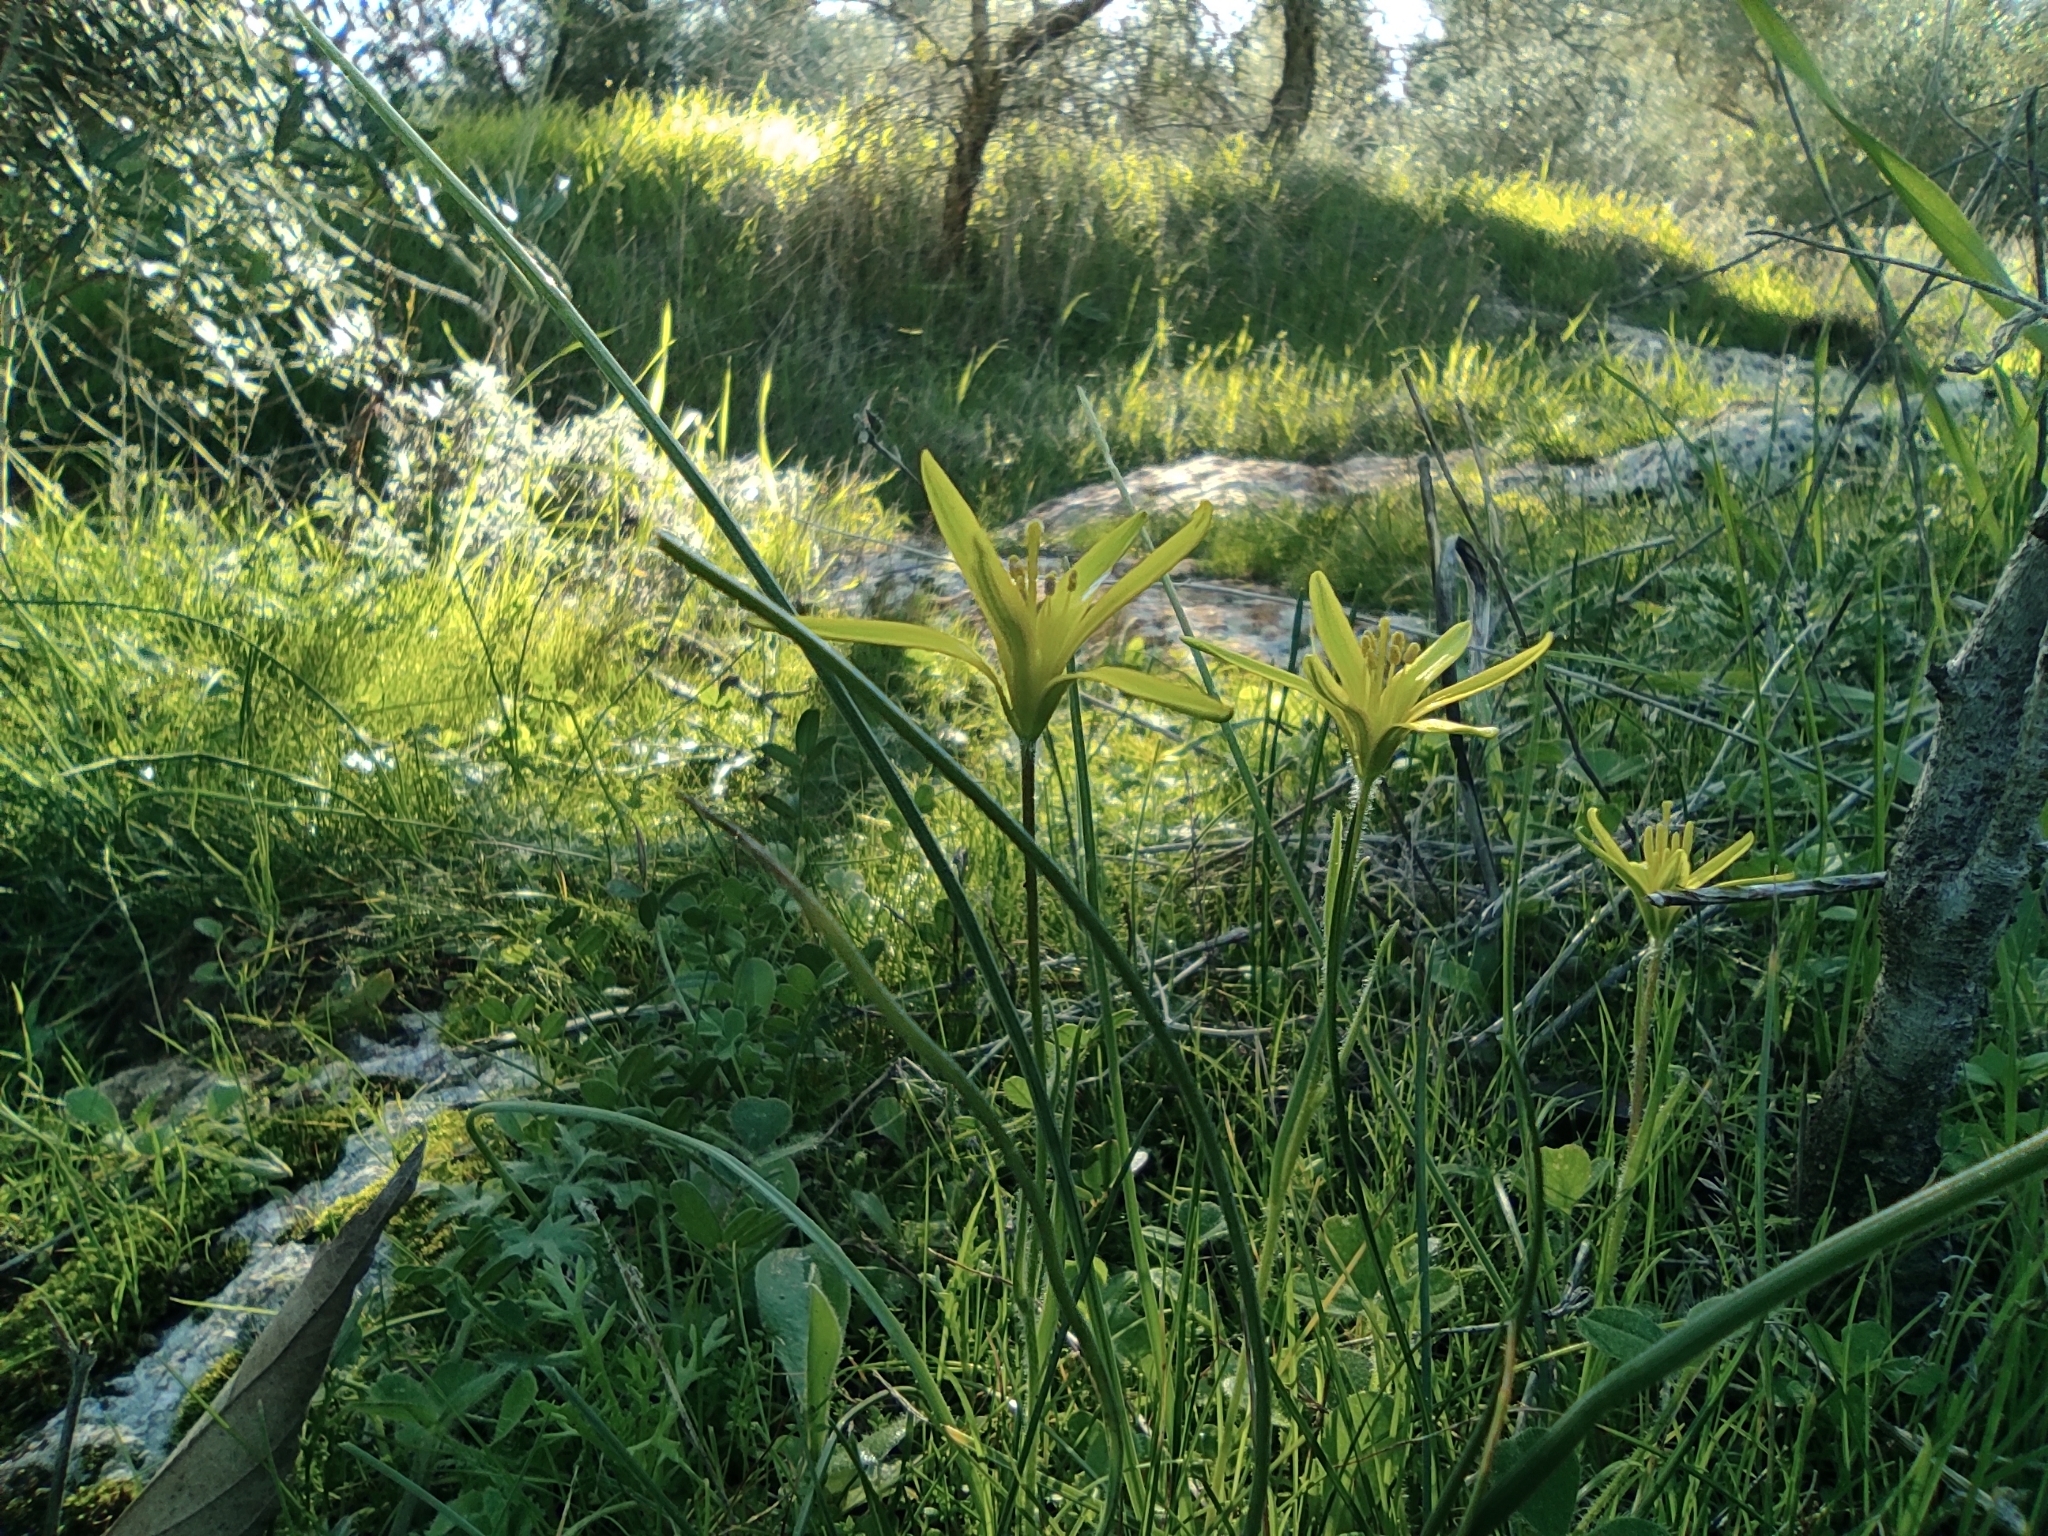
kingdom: Plantae
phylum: Tracheophyta
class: Liliopsida
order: Liliales
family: Liliaceae
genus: Gagea
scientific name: Gagea chlorantha
